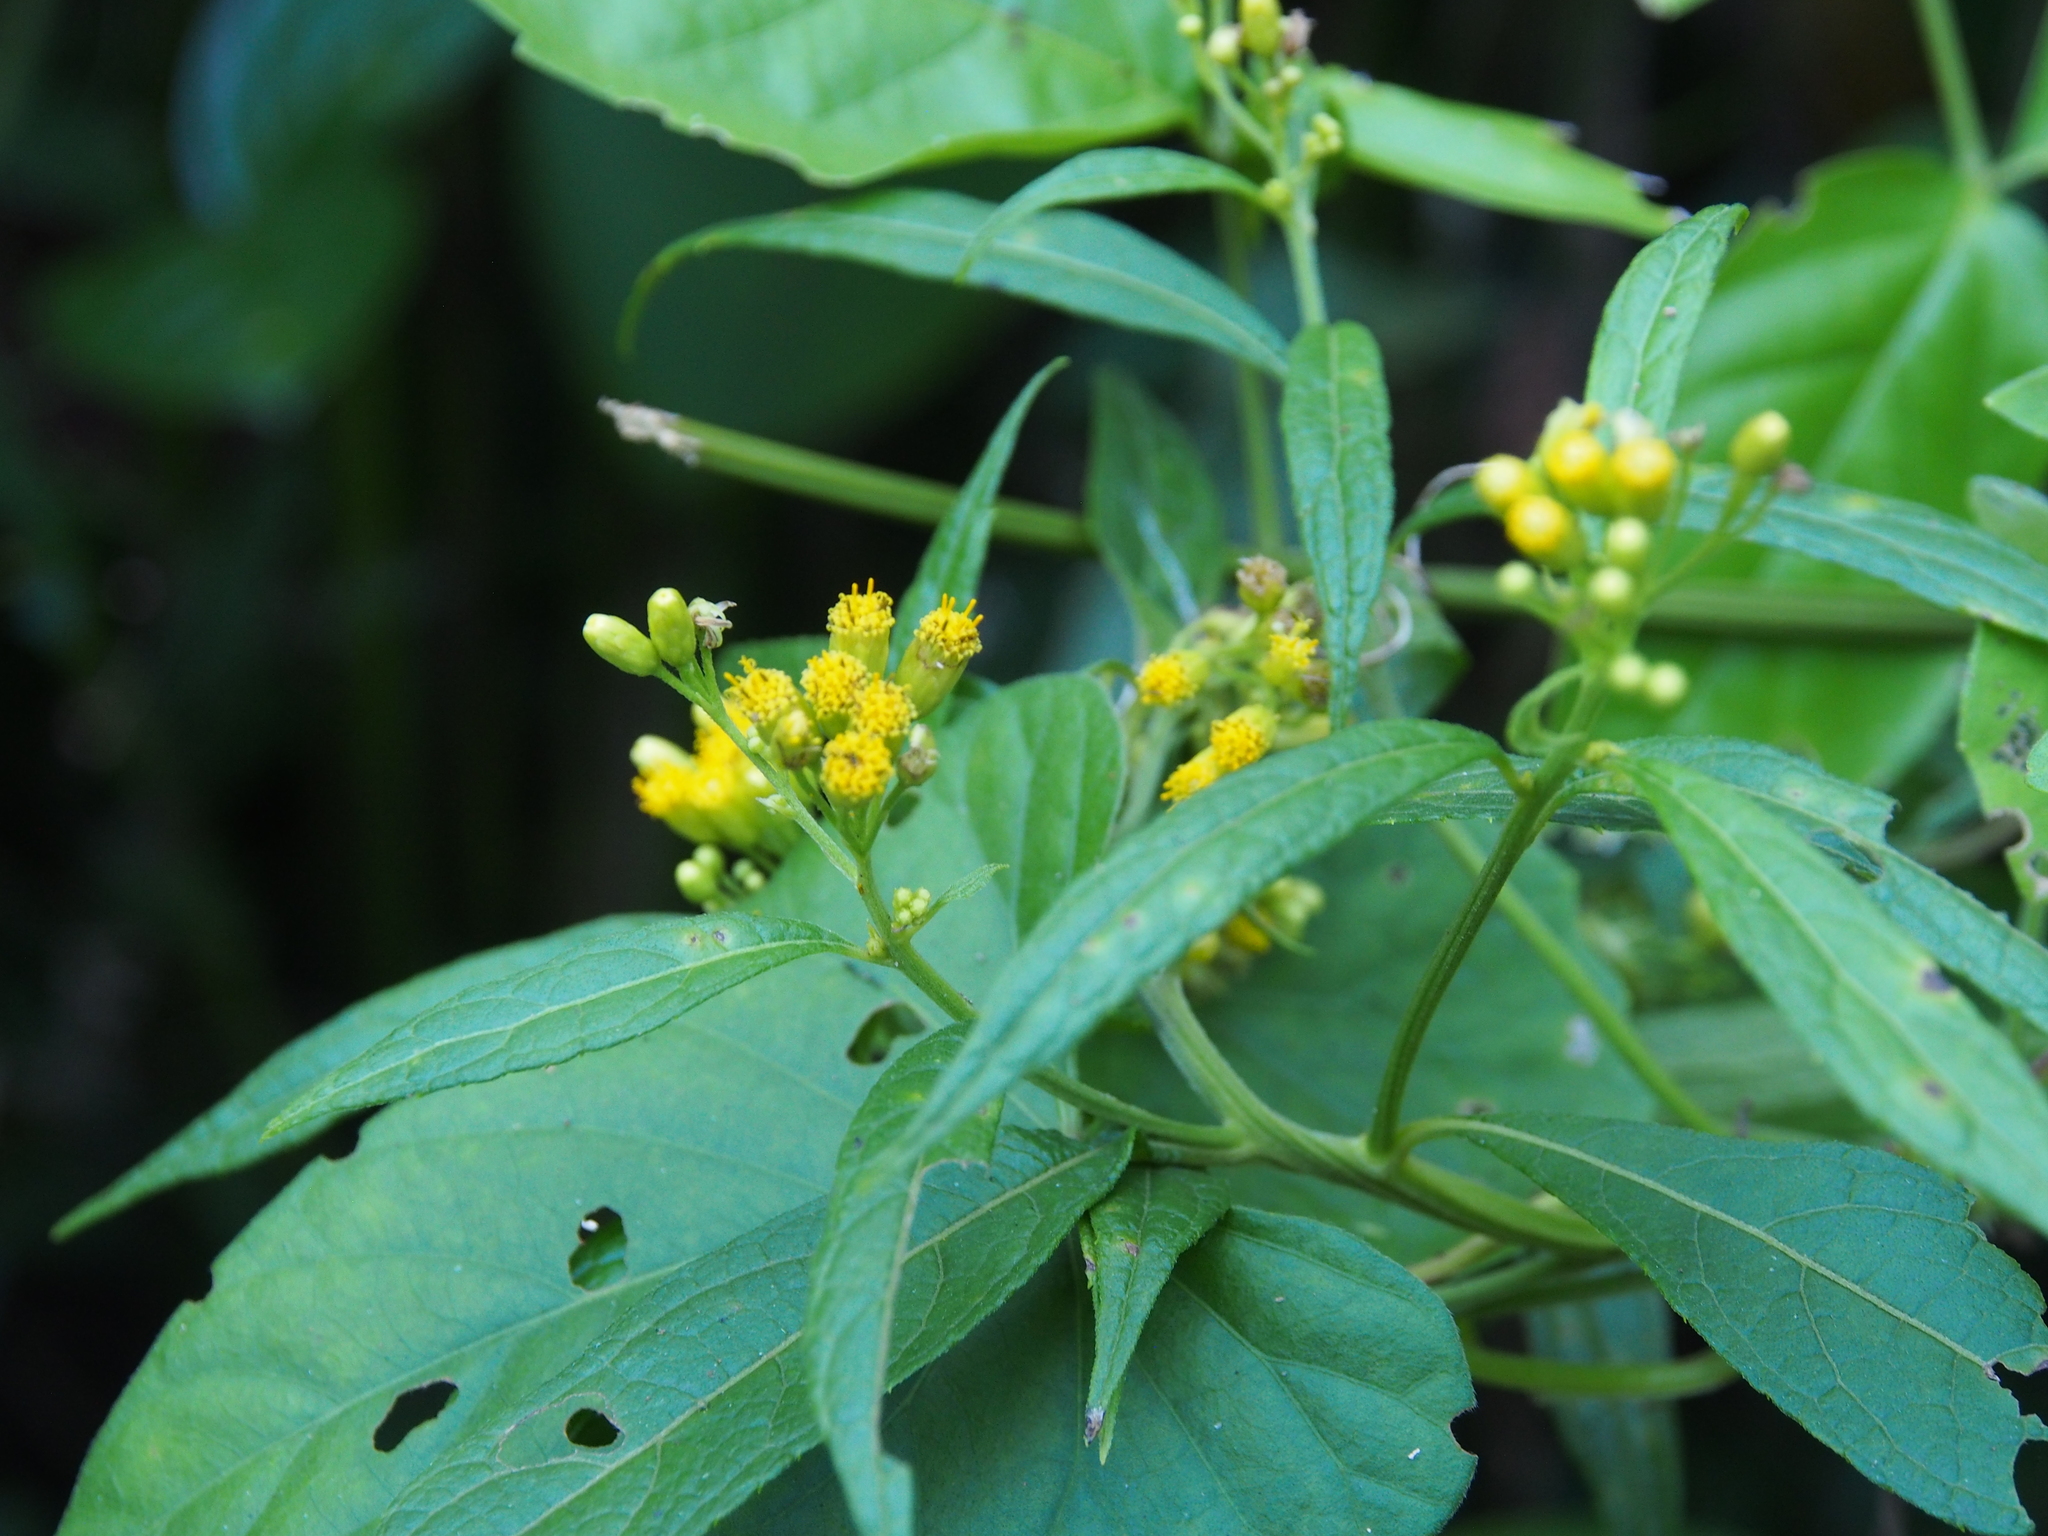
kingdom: Plantae
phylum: Tracheophyta
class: Magnoliopsida
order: Asterales
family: Asteraceae
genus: Neurolaena
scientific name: Neurolaena lobata
